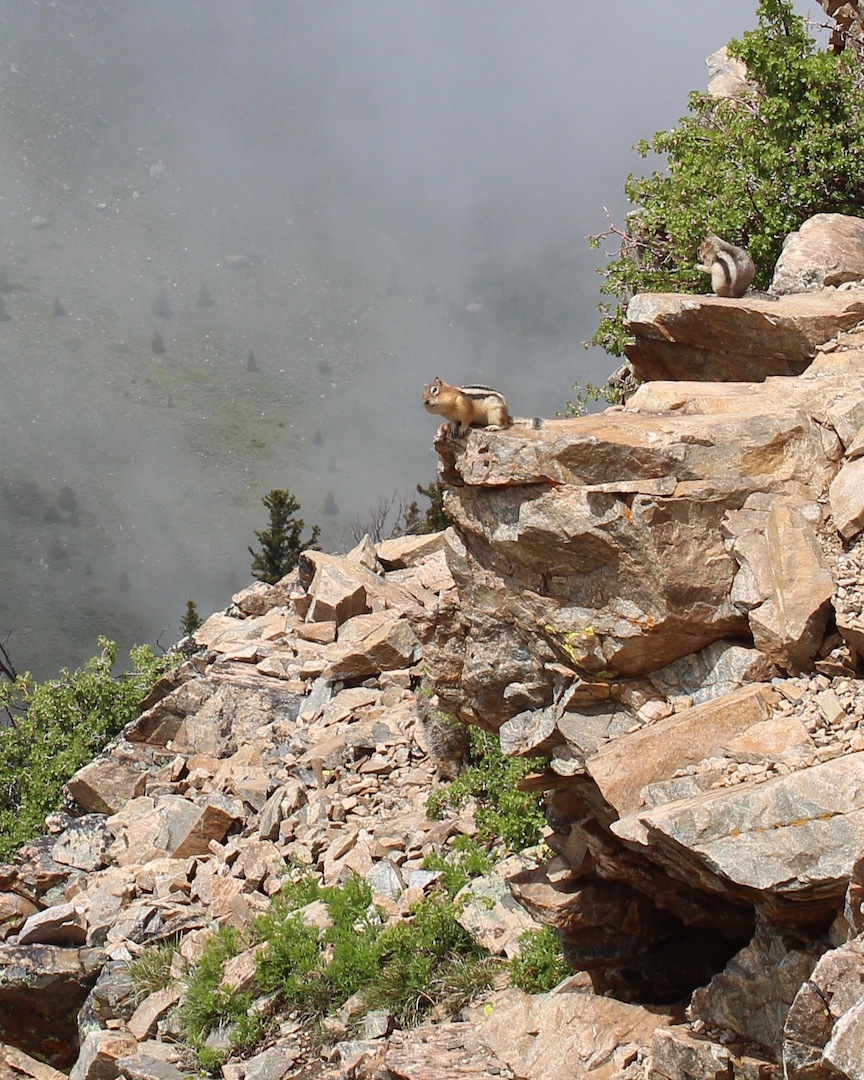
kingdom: Animalia
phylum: Chordata
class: Mammalia
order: Rodentia
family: Sciuridae
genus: Callospermophilus
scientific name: Callospermophilus lateralis
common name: Golden-mantled ground squirrel
